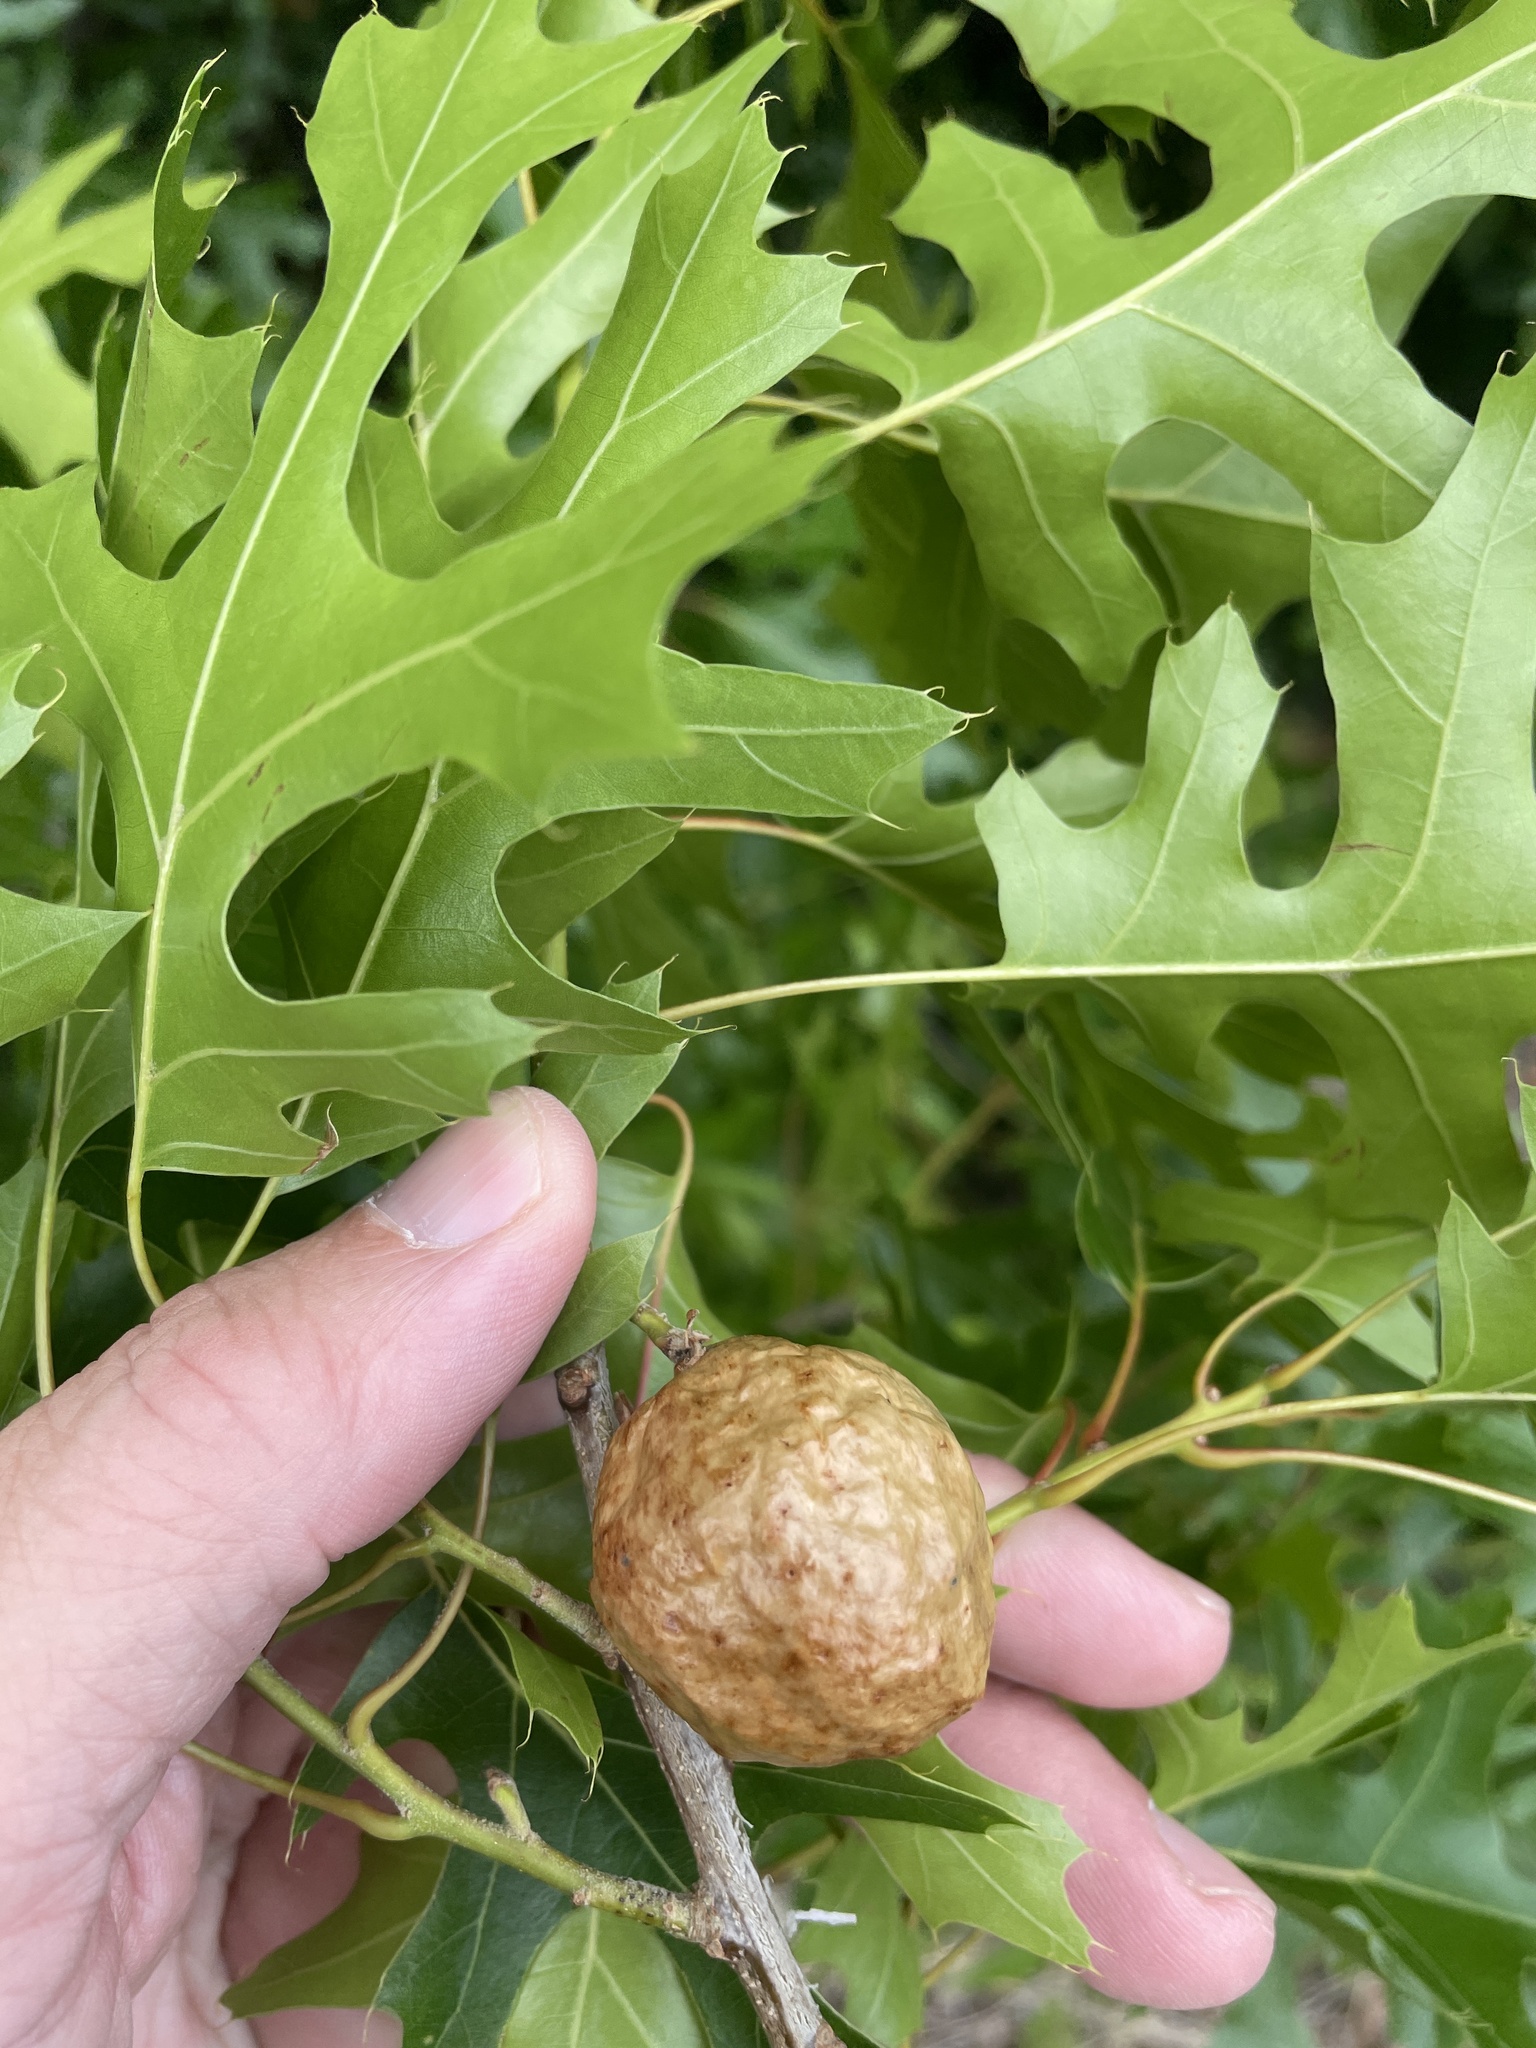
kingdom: Animalia
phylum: Arthropoda
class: Insecta
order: Hymenoptera
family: Cynipidae
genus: Amphibolips
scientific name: Amphibolips
